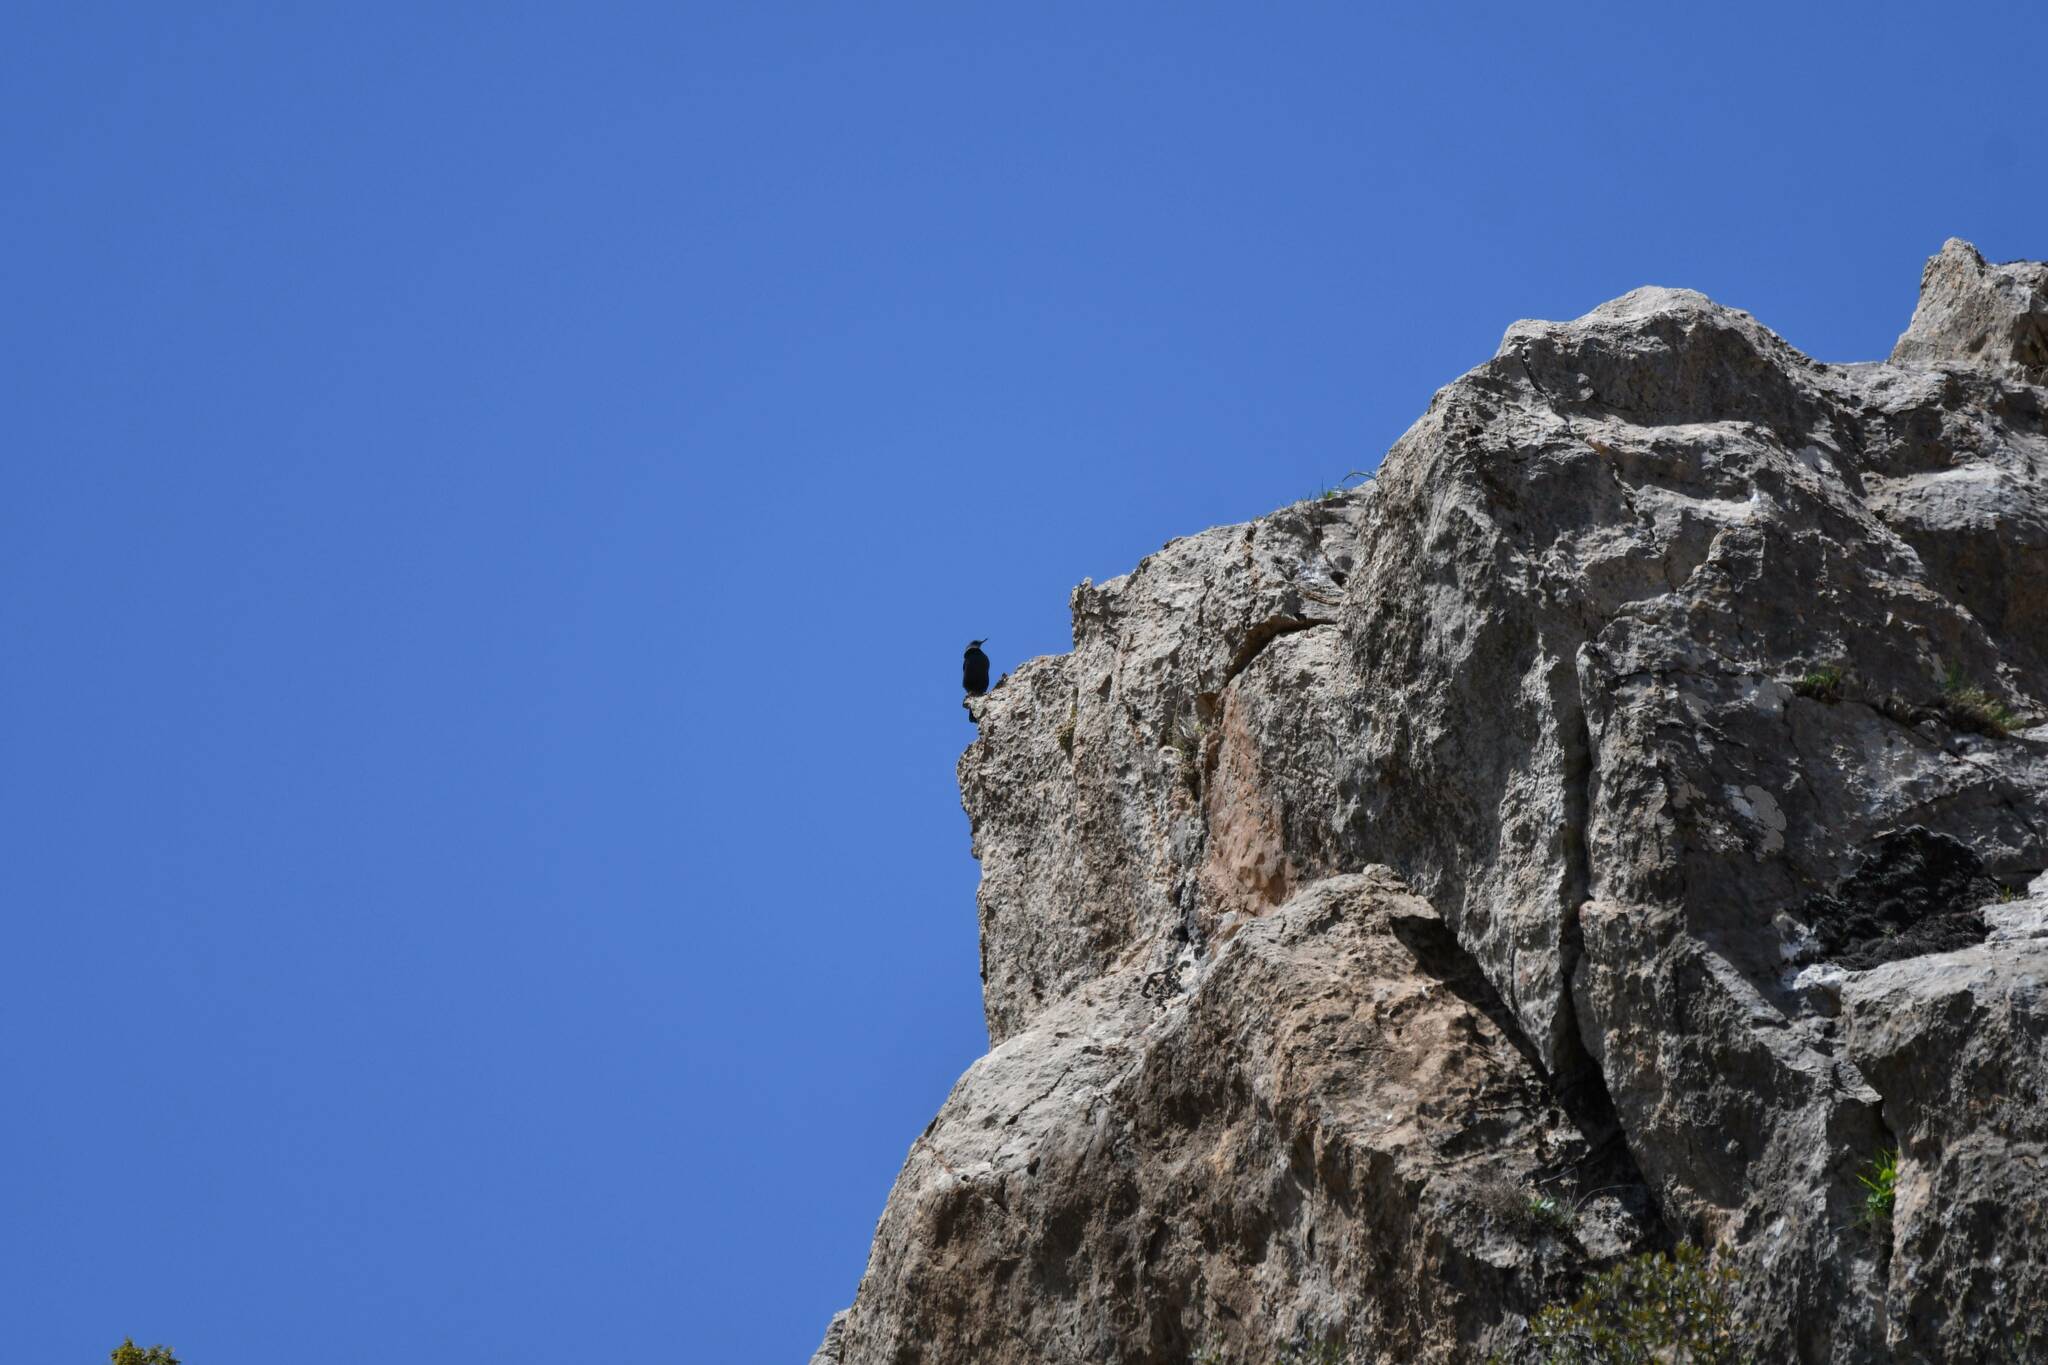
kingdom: Animalia
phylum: Chordata
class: Aves
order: Passeriformes
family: Muscicapidae
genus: Monticola
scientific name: Monticola solitarius
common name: Blue rock thrush
